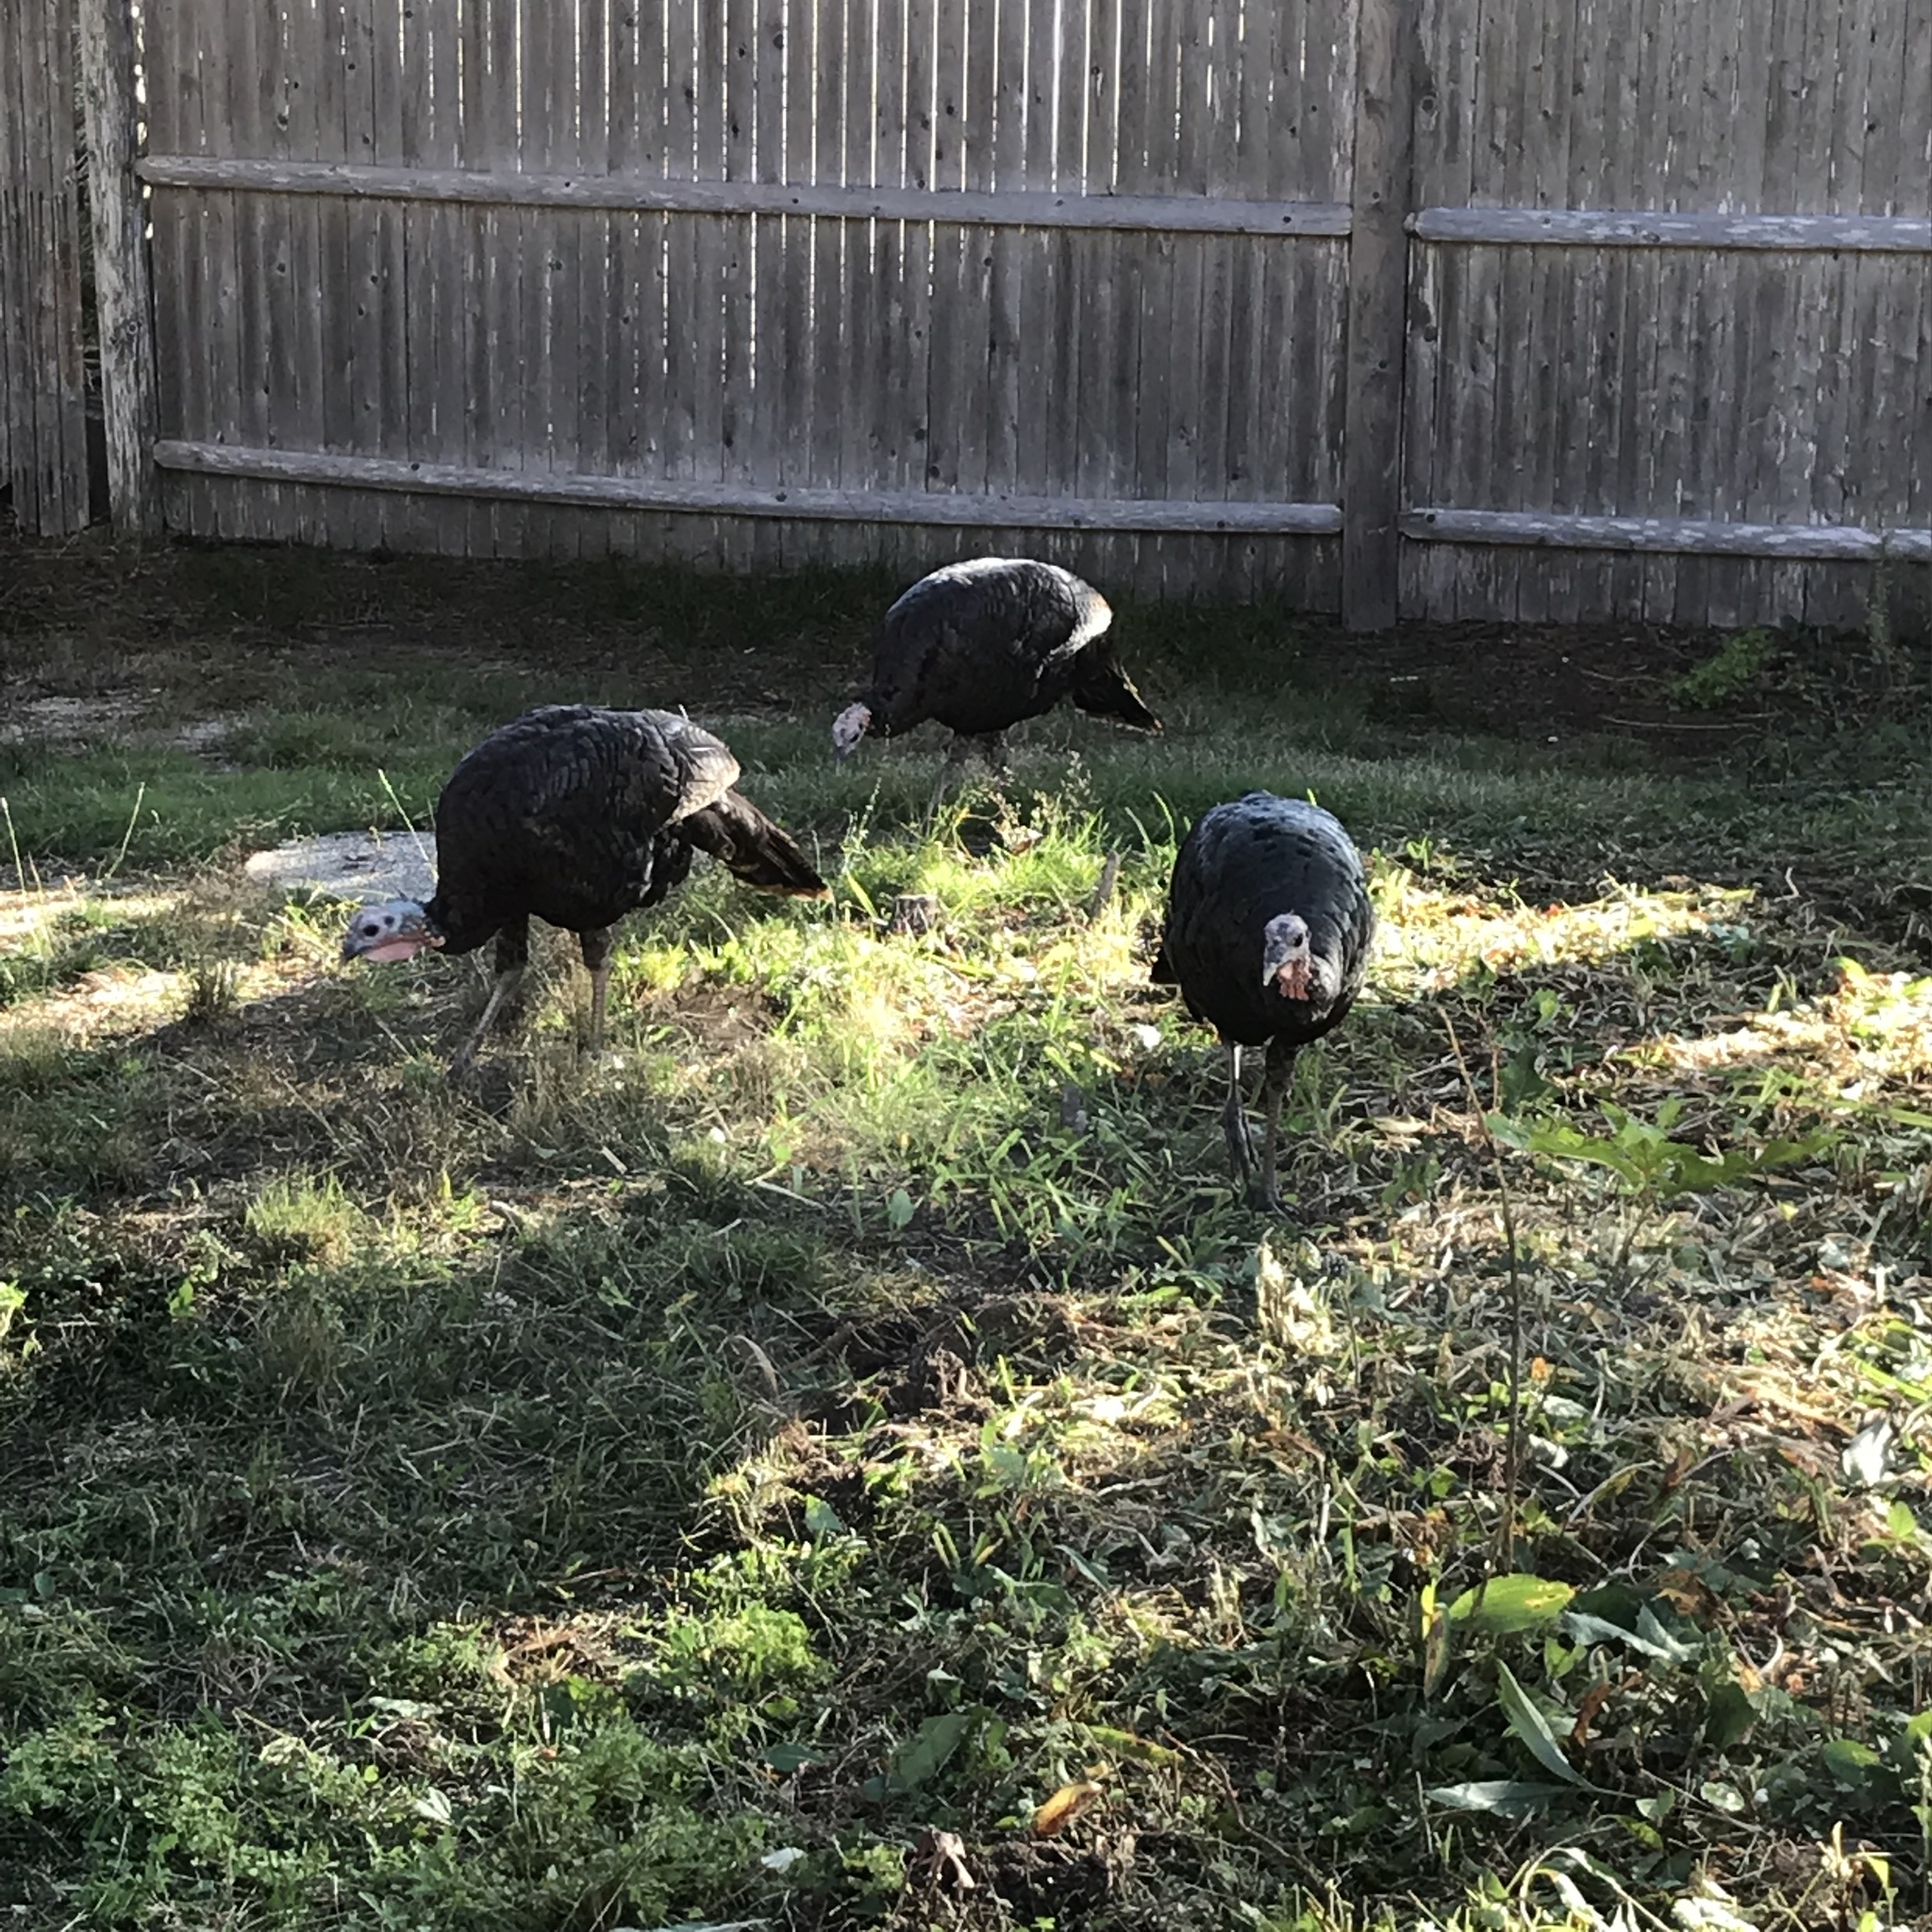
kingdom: Animalia
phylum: Chordata
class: Aves
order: Galliformes
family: Phasianidae
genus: Meleagris
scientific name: Meleagris gallopavo
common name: Wild turkey
